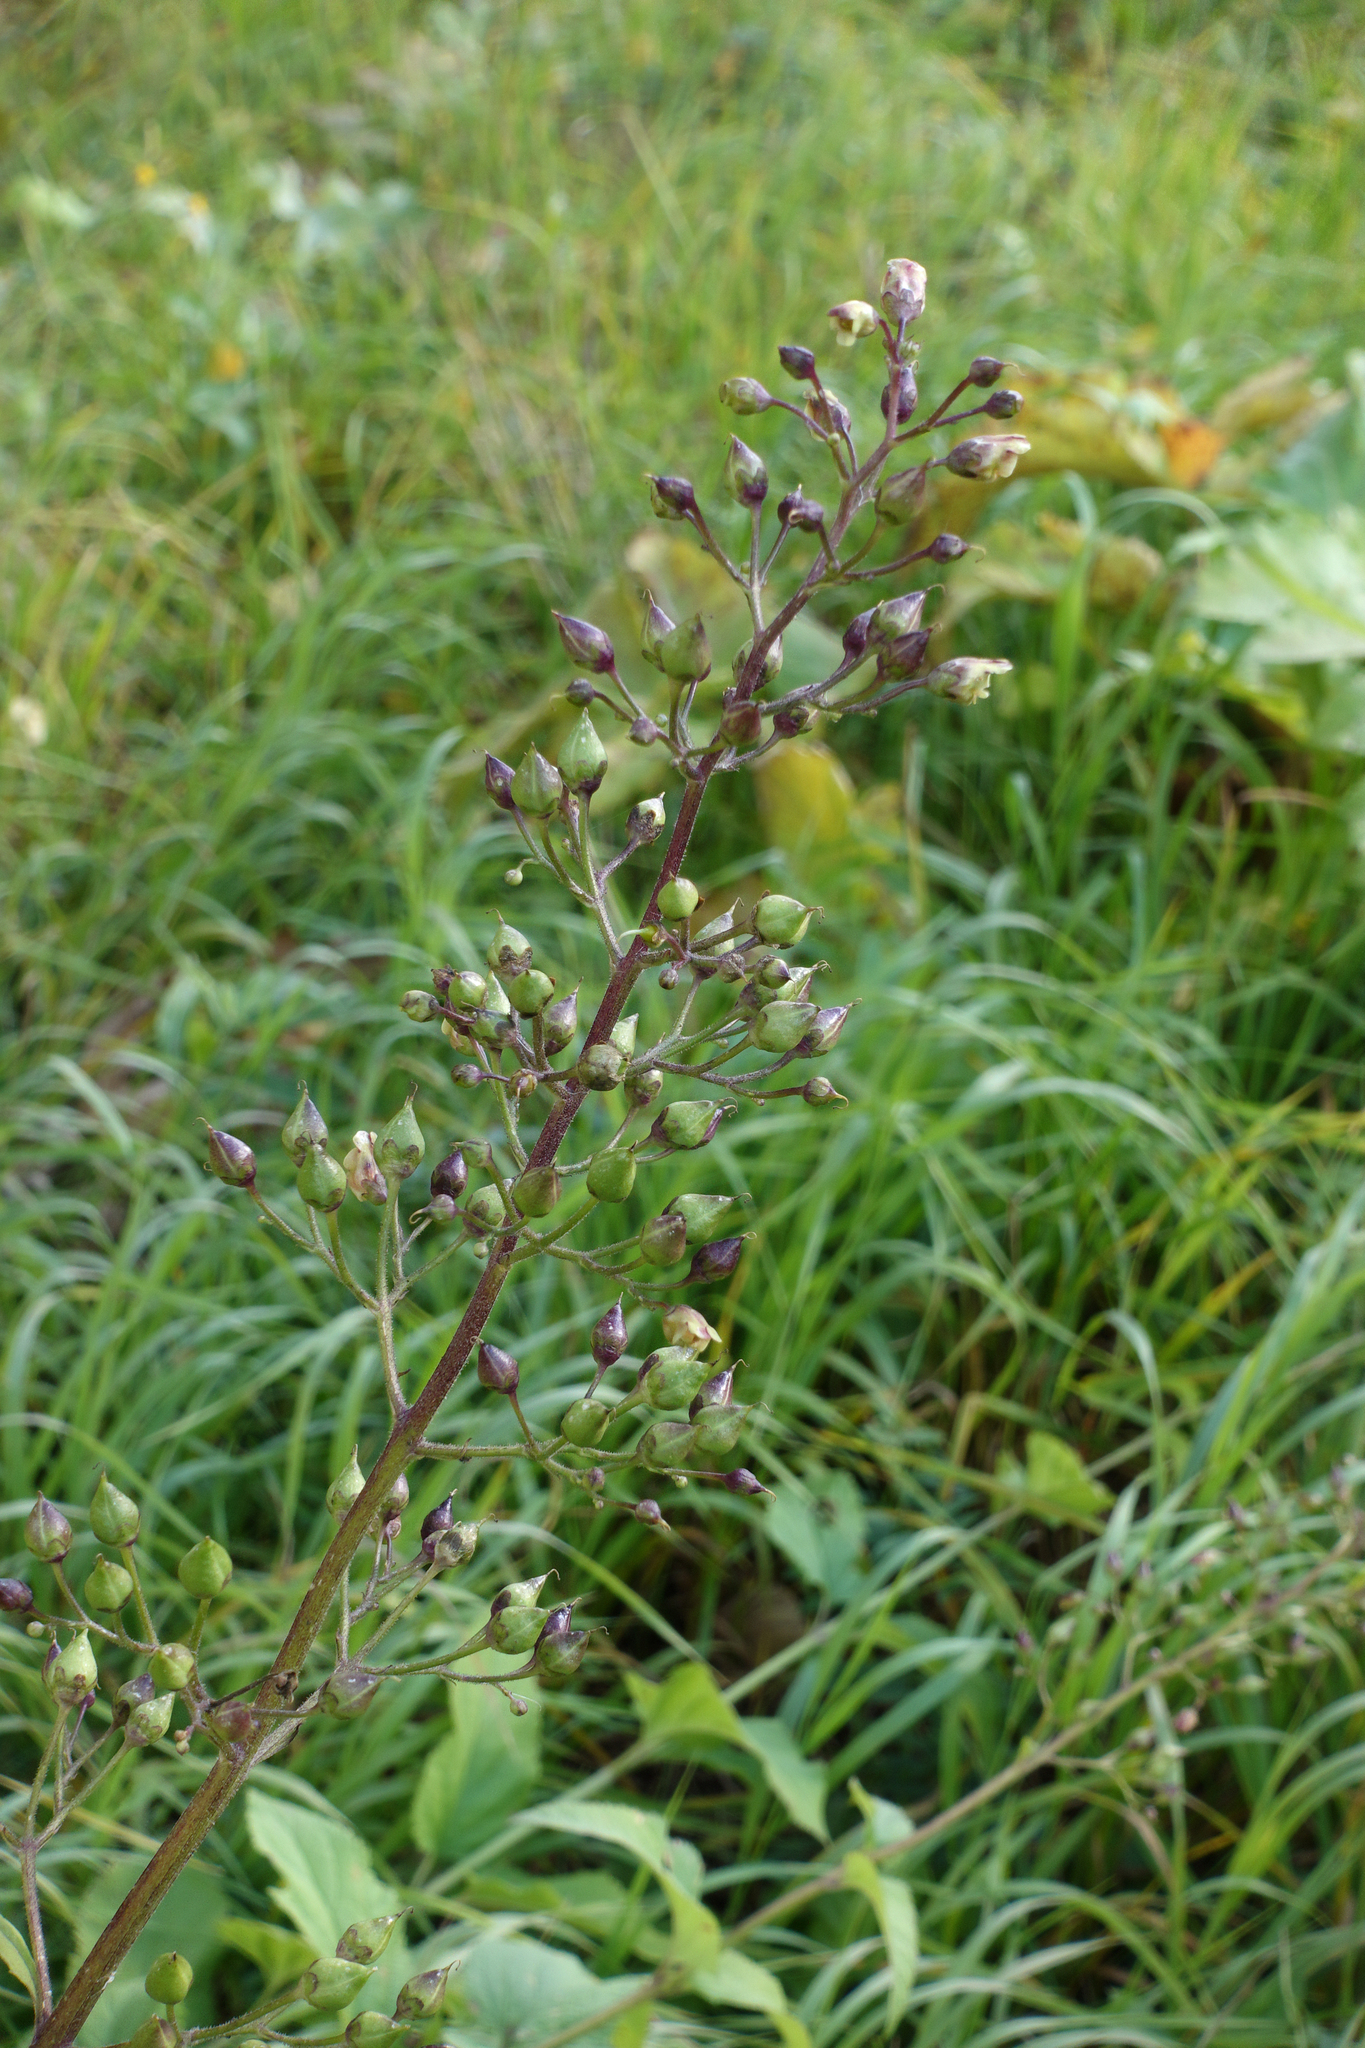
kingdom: Plantae
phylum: Tracheophyta
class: Magnoliopsida
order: Lamiales
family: Scrophulariaceae
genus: Scrophularia
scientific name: Scrophularia nodosa
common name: Common figwort
